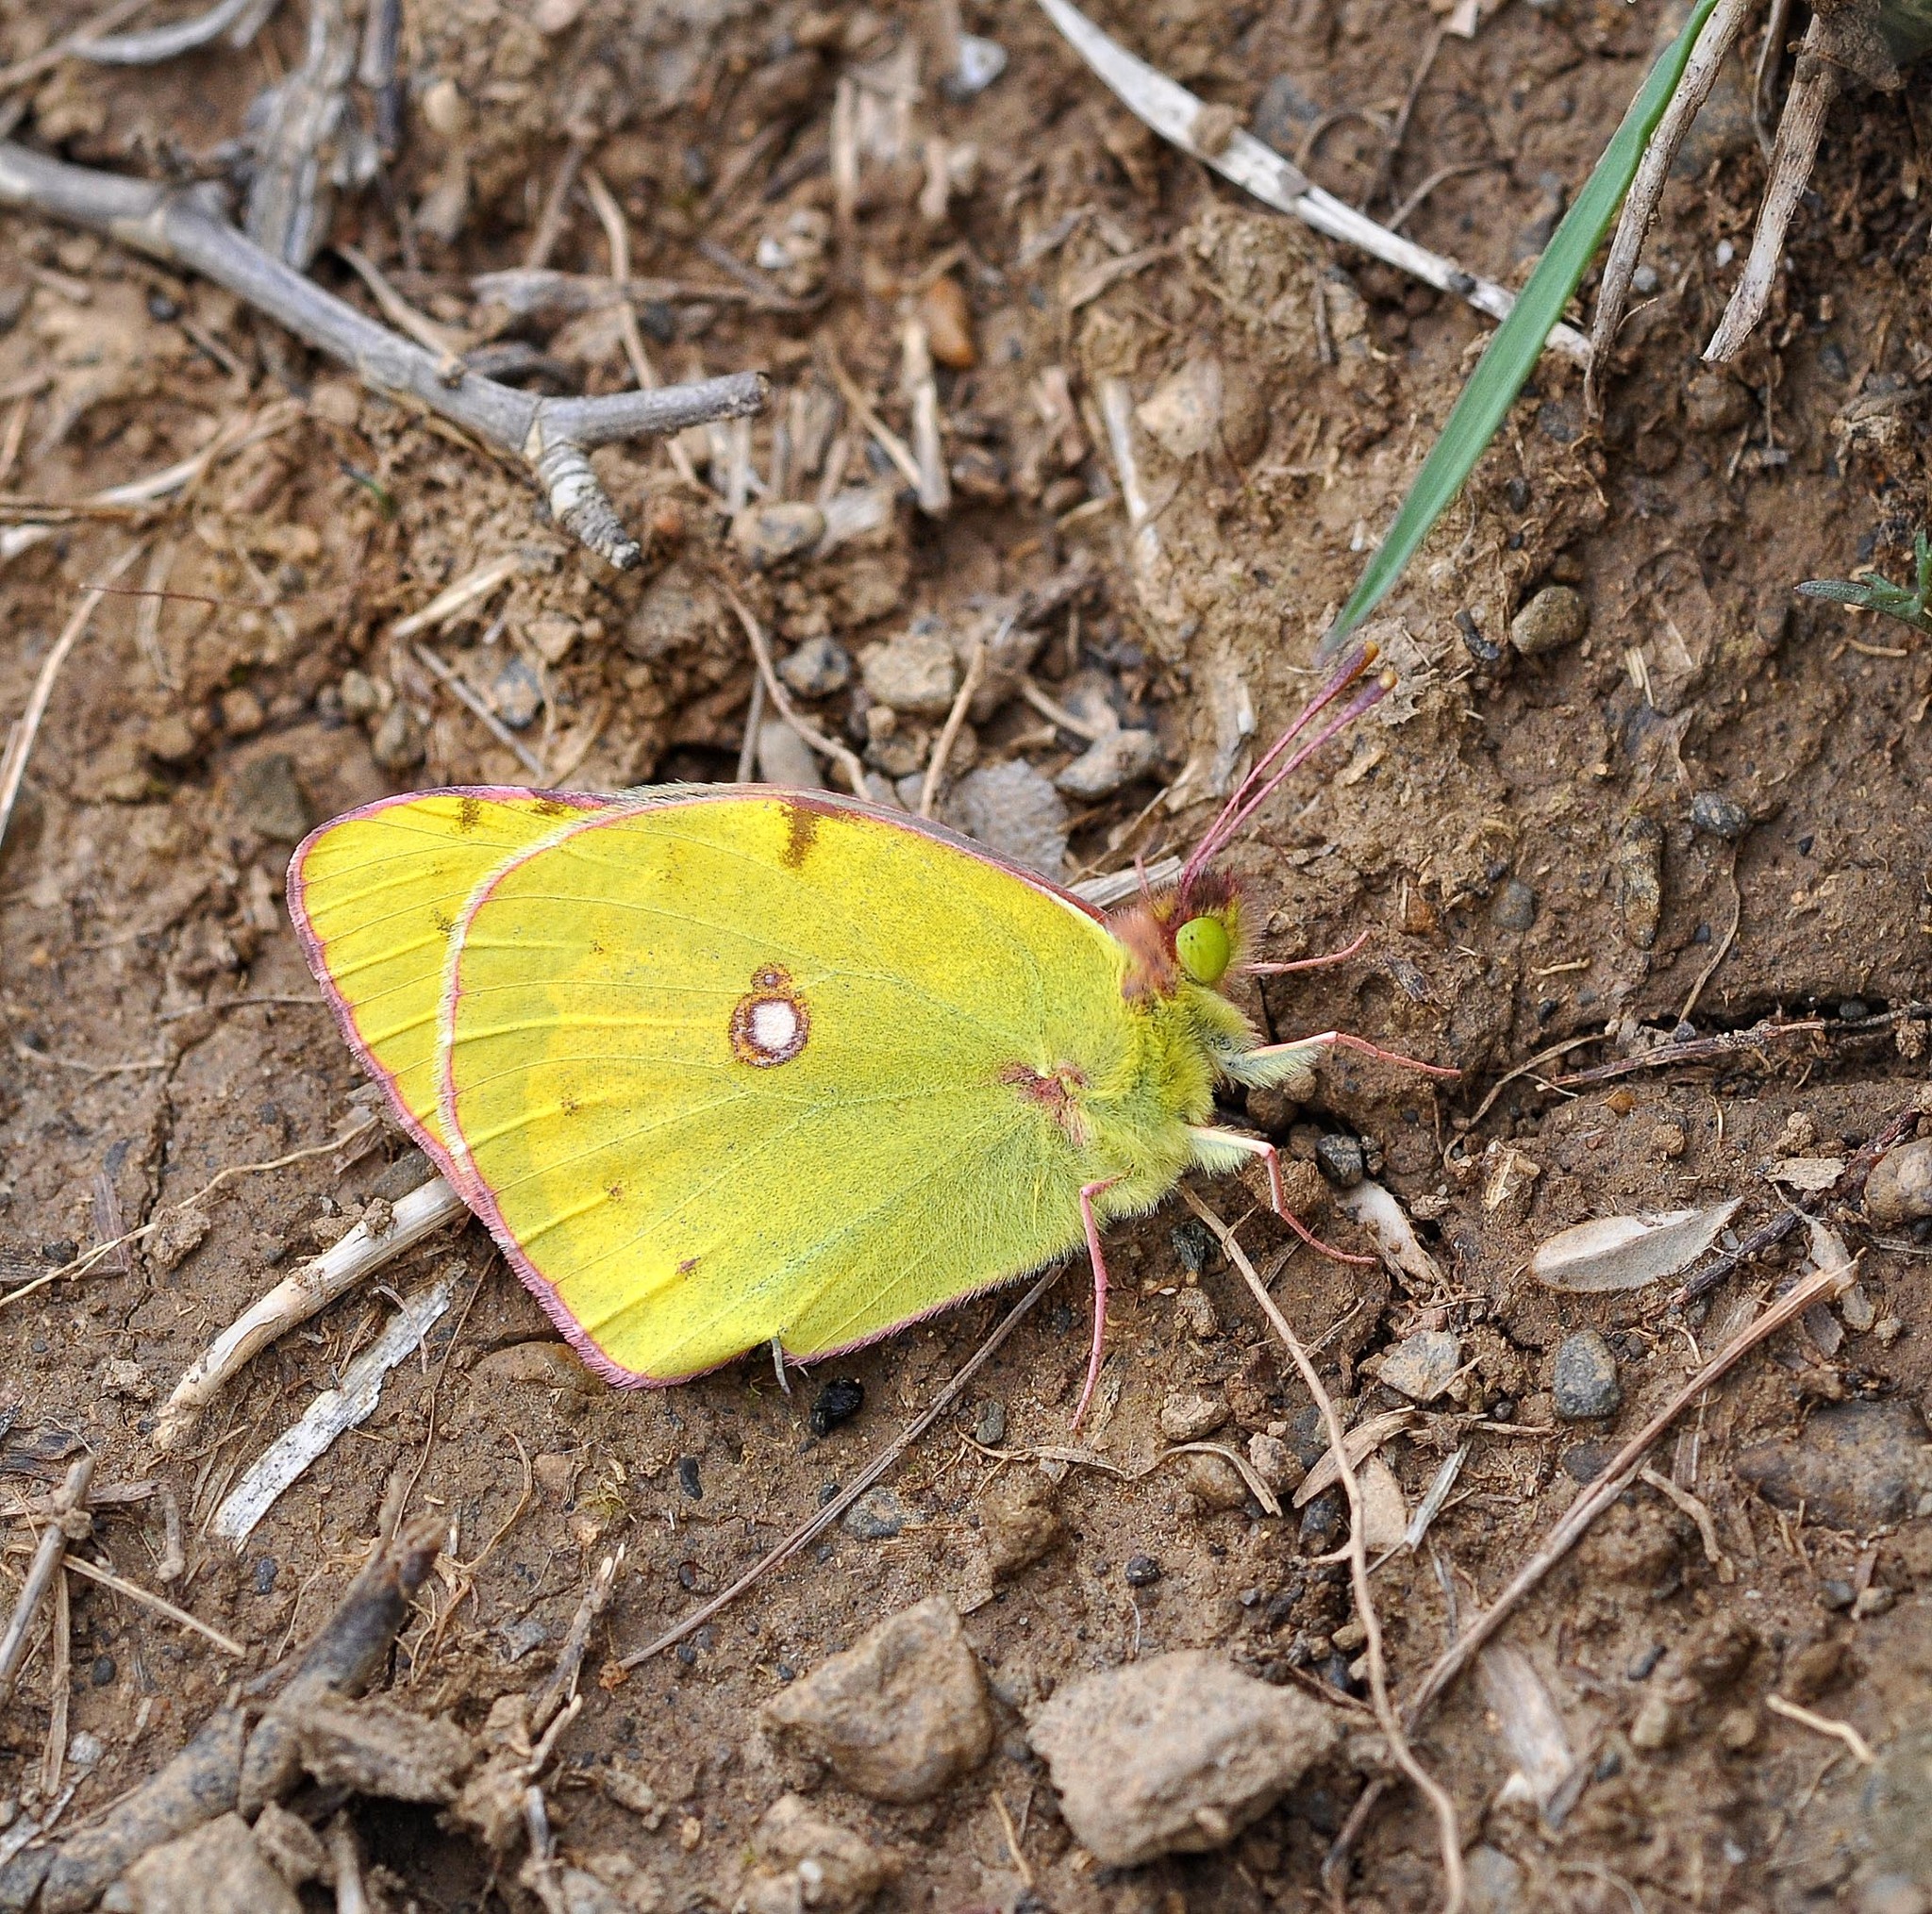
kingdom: Animalia
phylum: Arthropoda
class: Insecta
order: Lepidoptera
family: Pieridae
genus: Colias
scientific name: Colias croceus
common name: Clouded yellow
